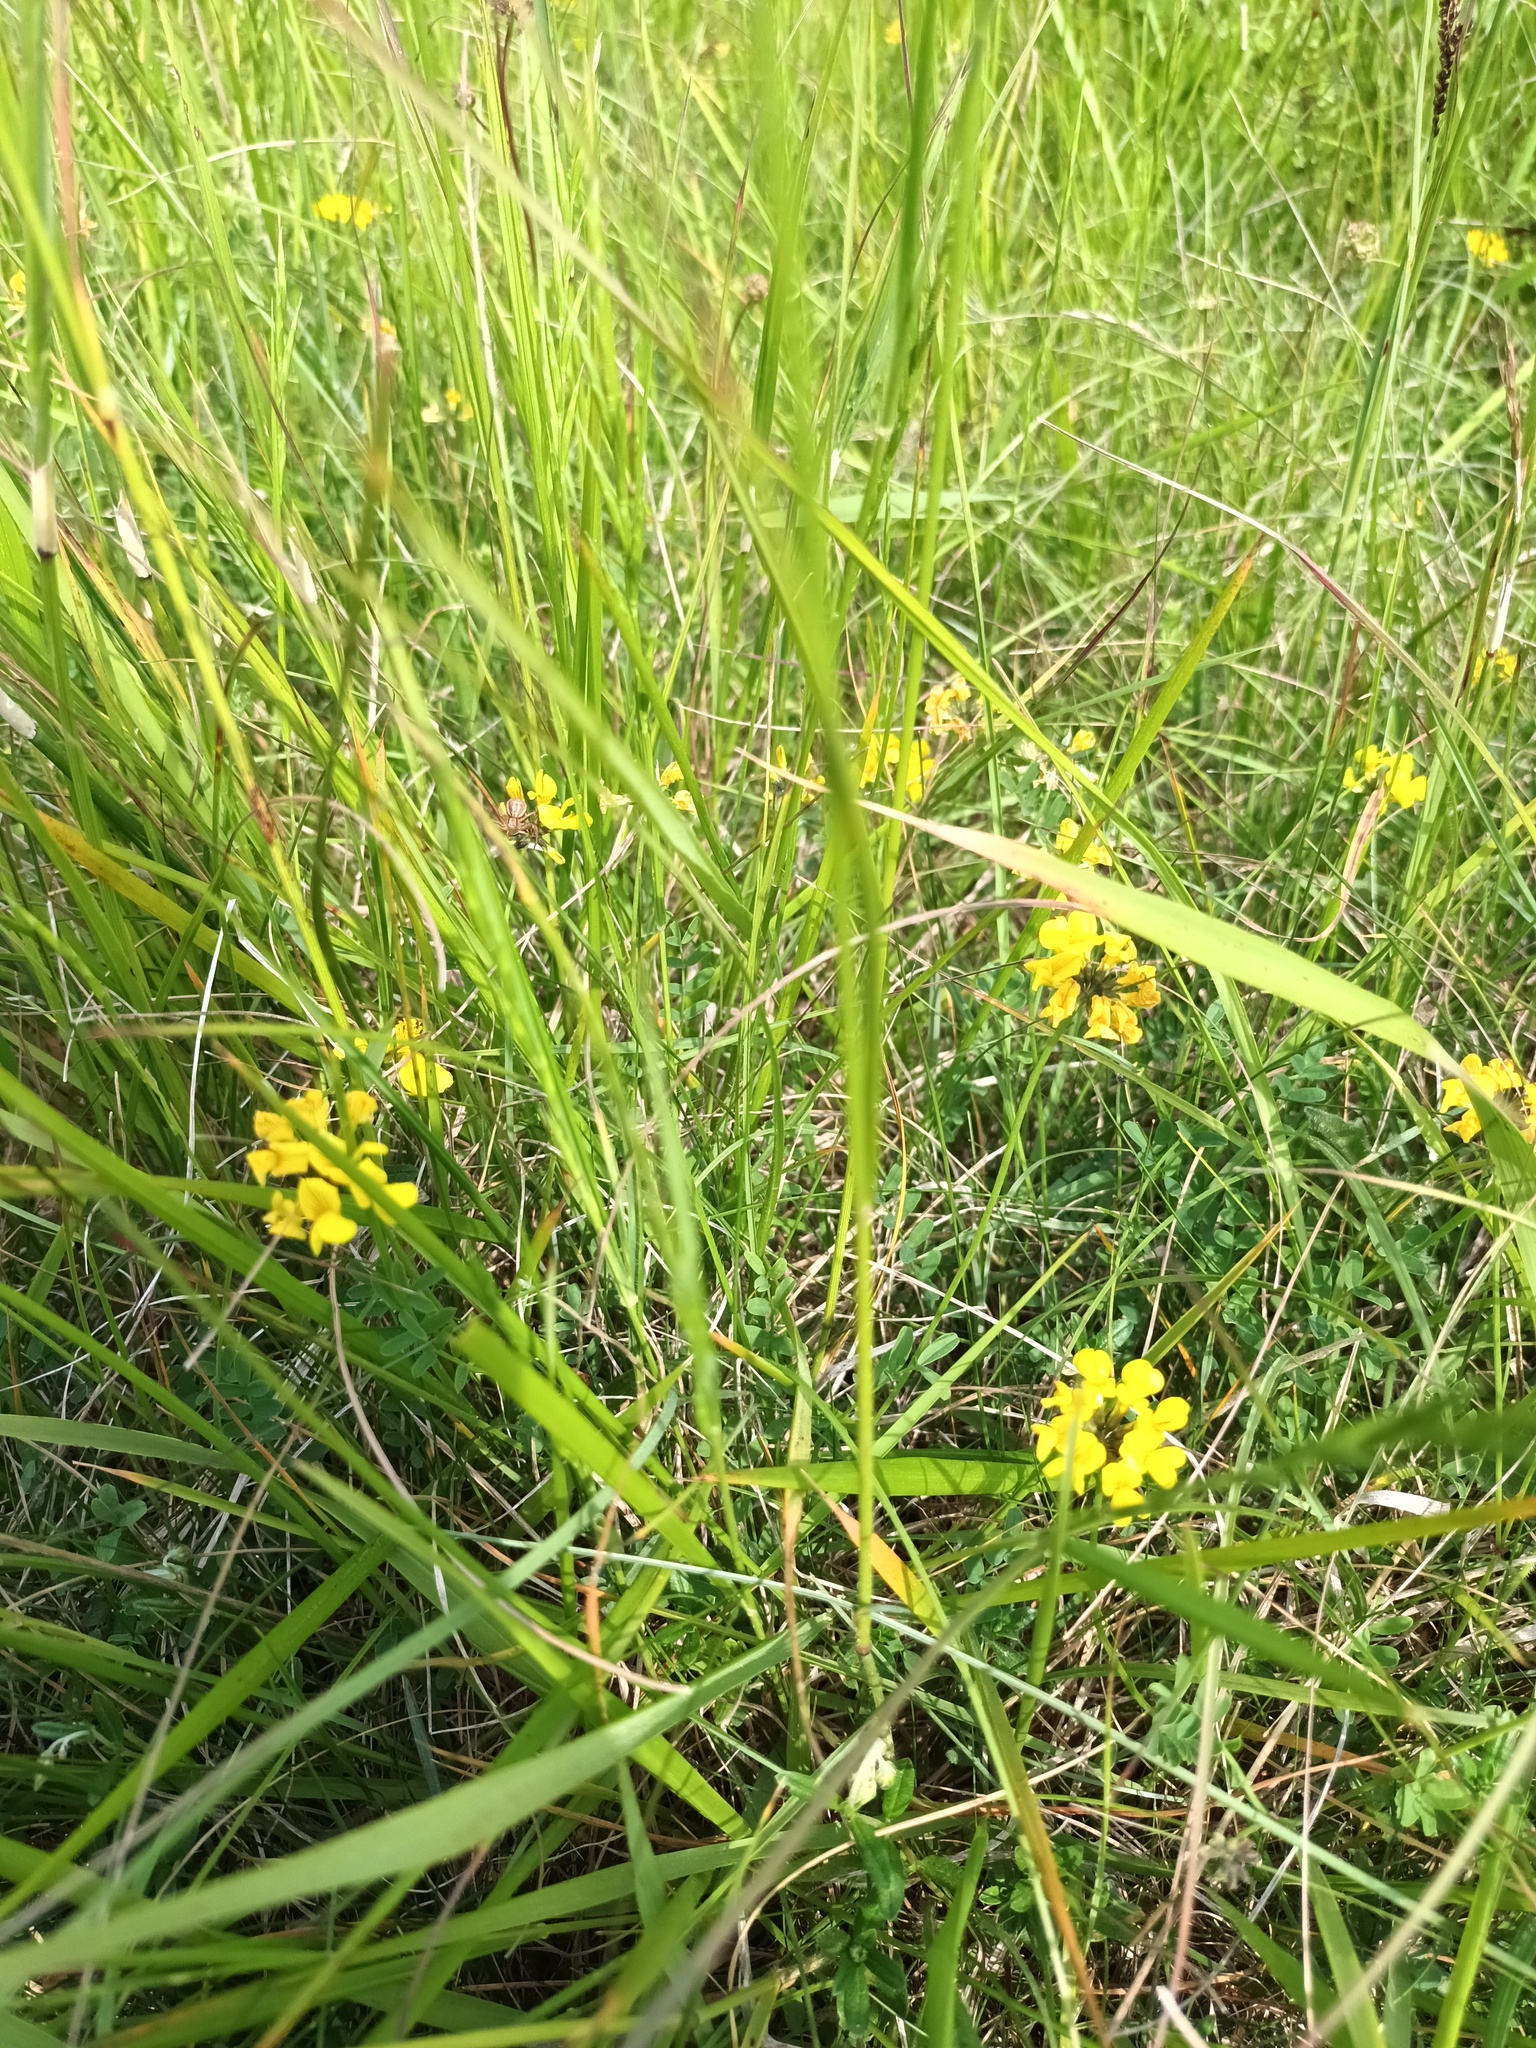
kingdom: Plantae
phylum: Tracheophyta
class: Magnoliopsida
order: Fabales
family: Fabaceae
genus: Hippocrepis
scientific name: Hippocrepis comosa
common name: Horseshoe vetch
